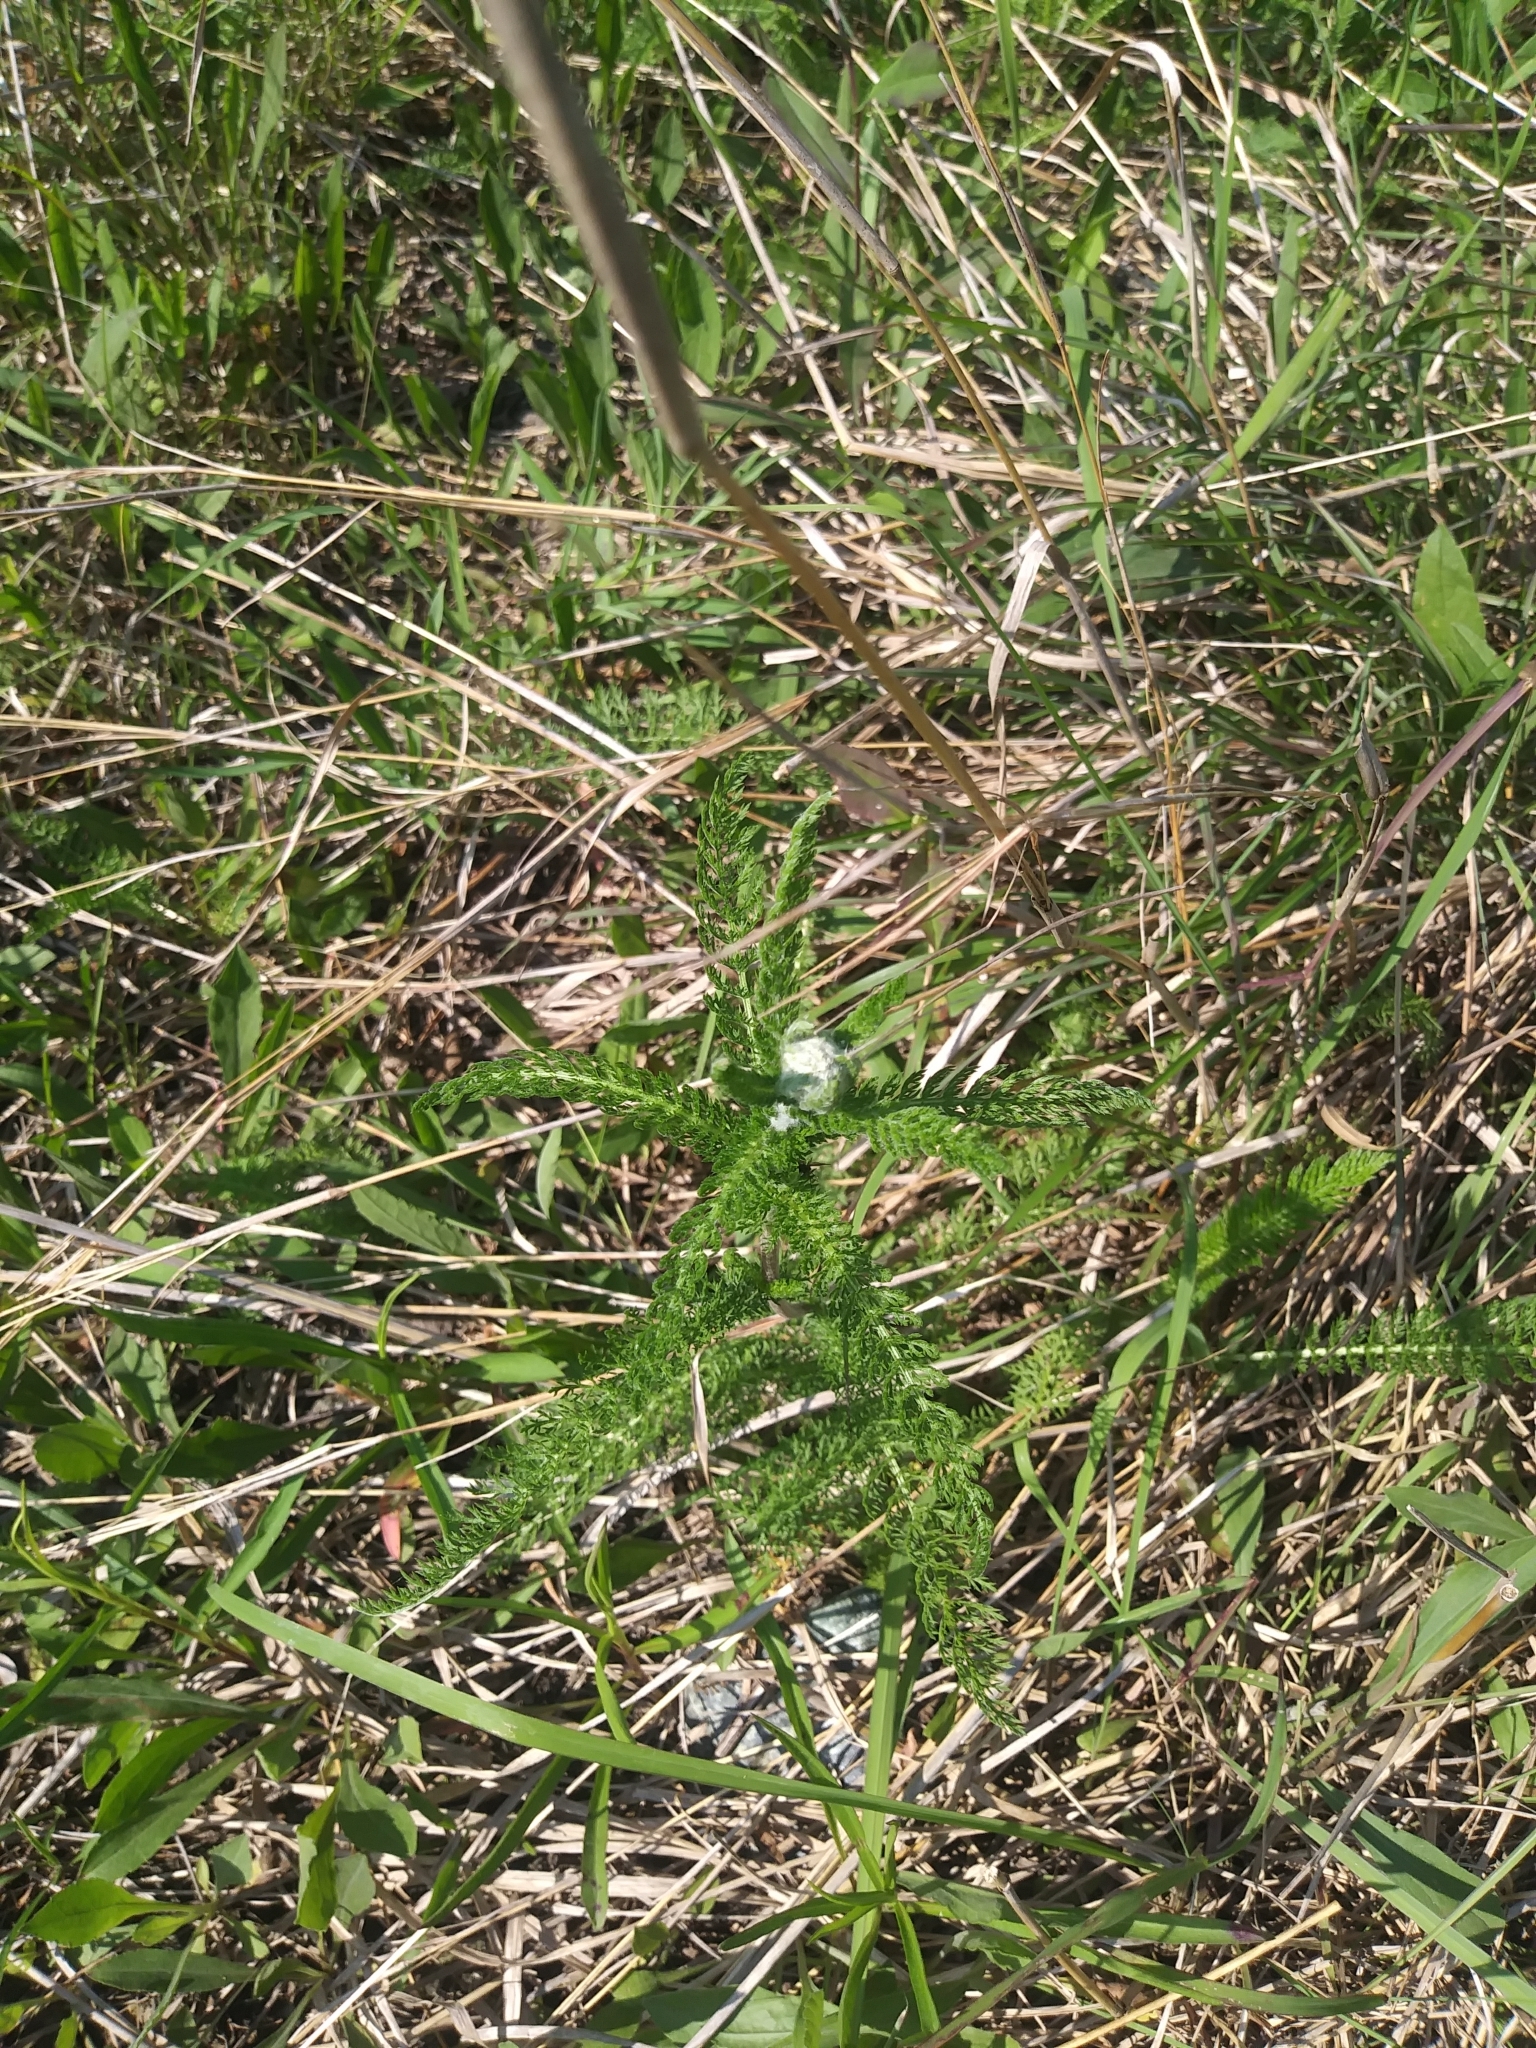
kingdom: Plantae
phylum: Tracheophyta
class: Magnoliopsida
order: Asterales
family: Asteraceae
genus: Achillea
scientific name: Achillea millefolium
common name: Yarrow
